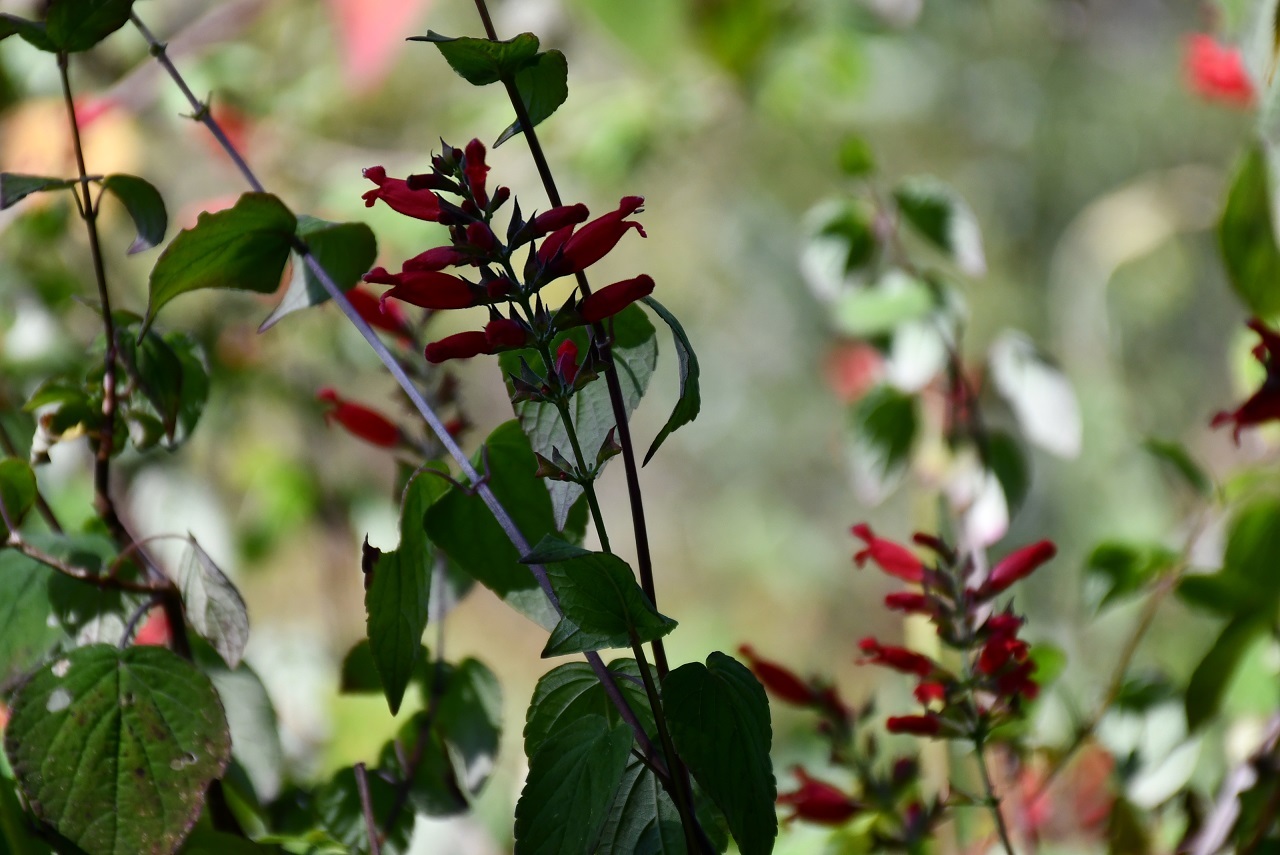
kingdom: Plantae
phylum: Tracheophyta
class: Magnoliopsida
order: Lamiales
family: Lamiaceae
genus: Salvia
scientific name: Salvia holwayi
